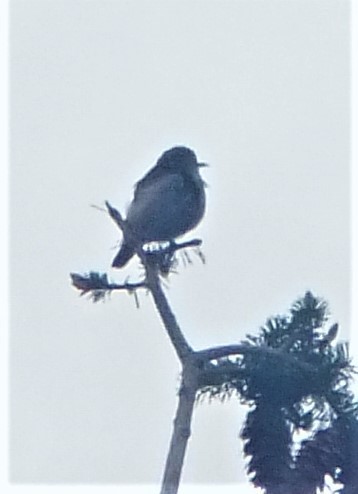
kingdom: Animalia
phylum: Chordata
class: Aves
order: Passeriformes
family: Troglodytidae
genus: Salpinctes
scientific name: Salpinctes obsoletus
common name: Rock wren
